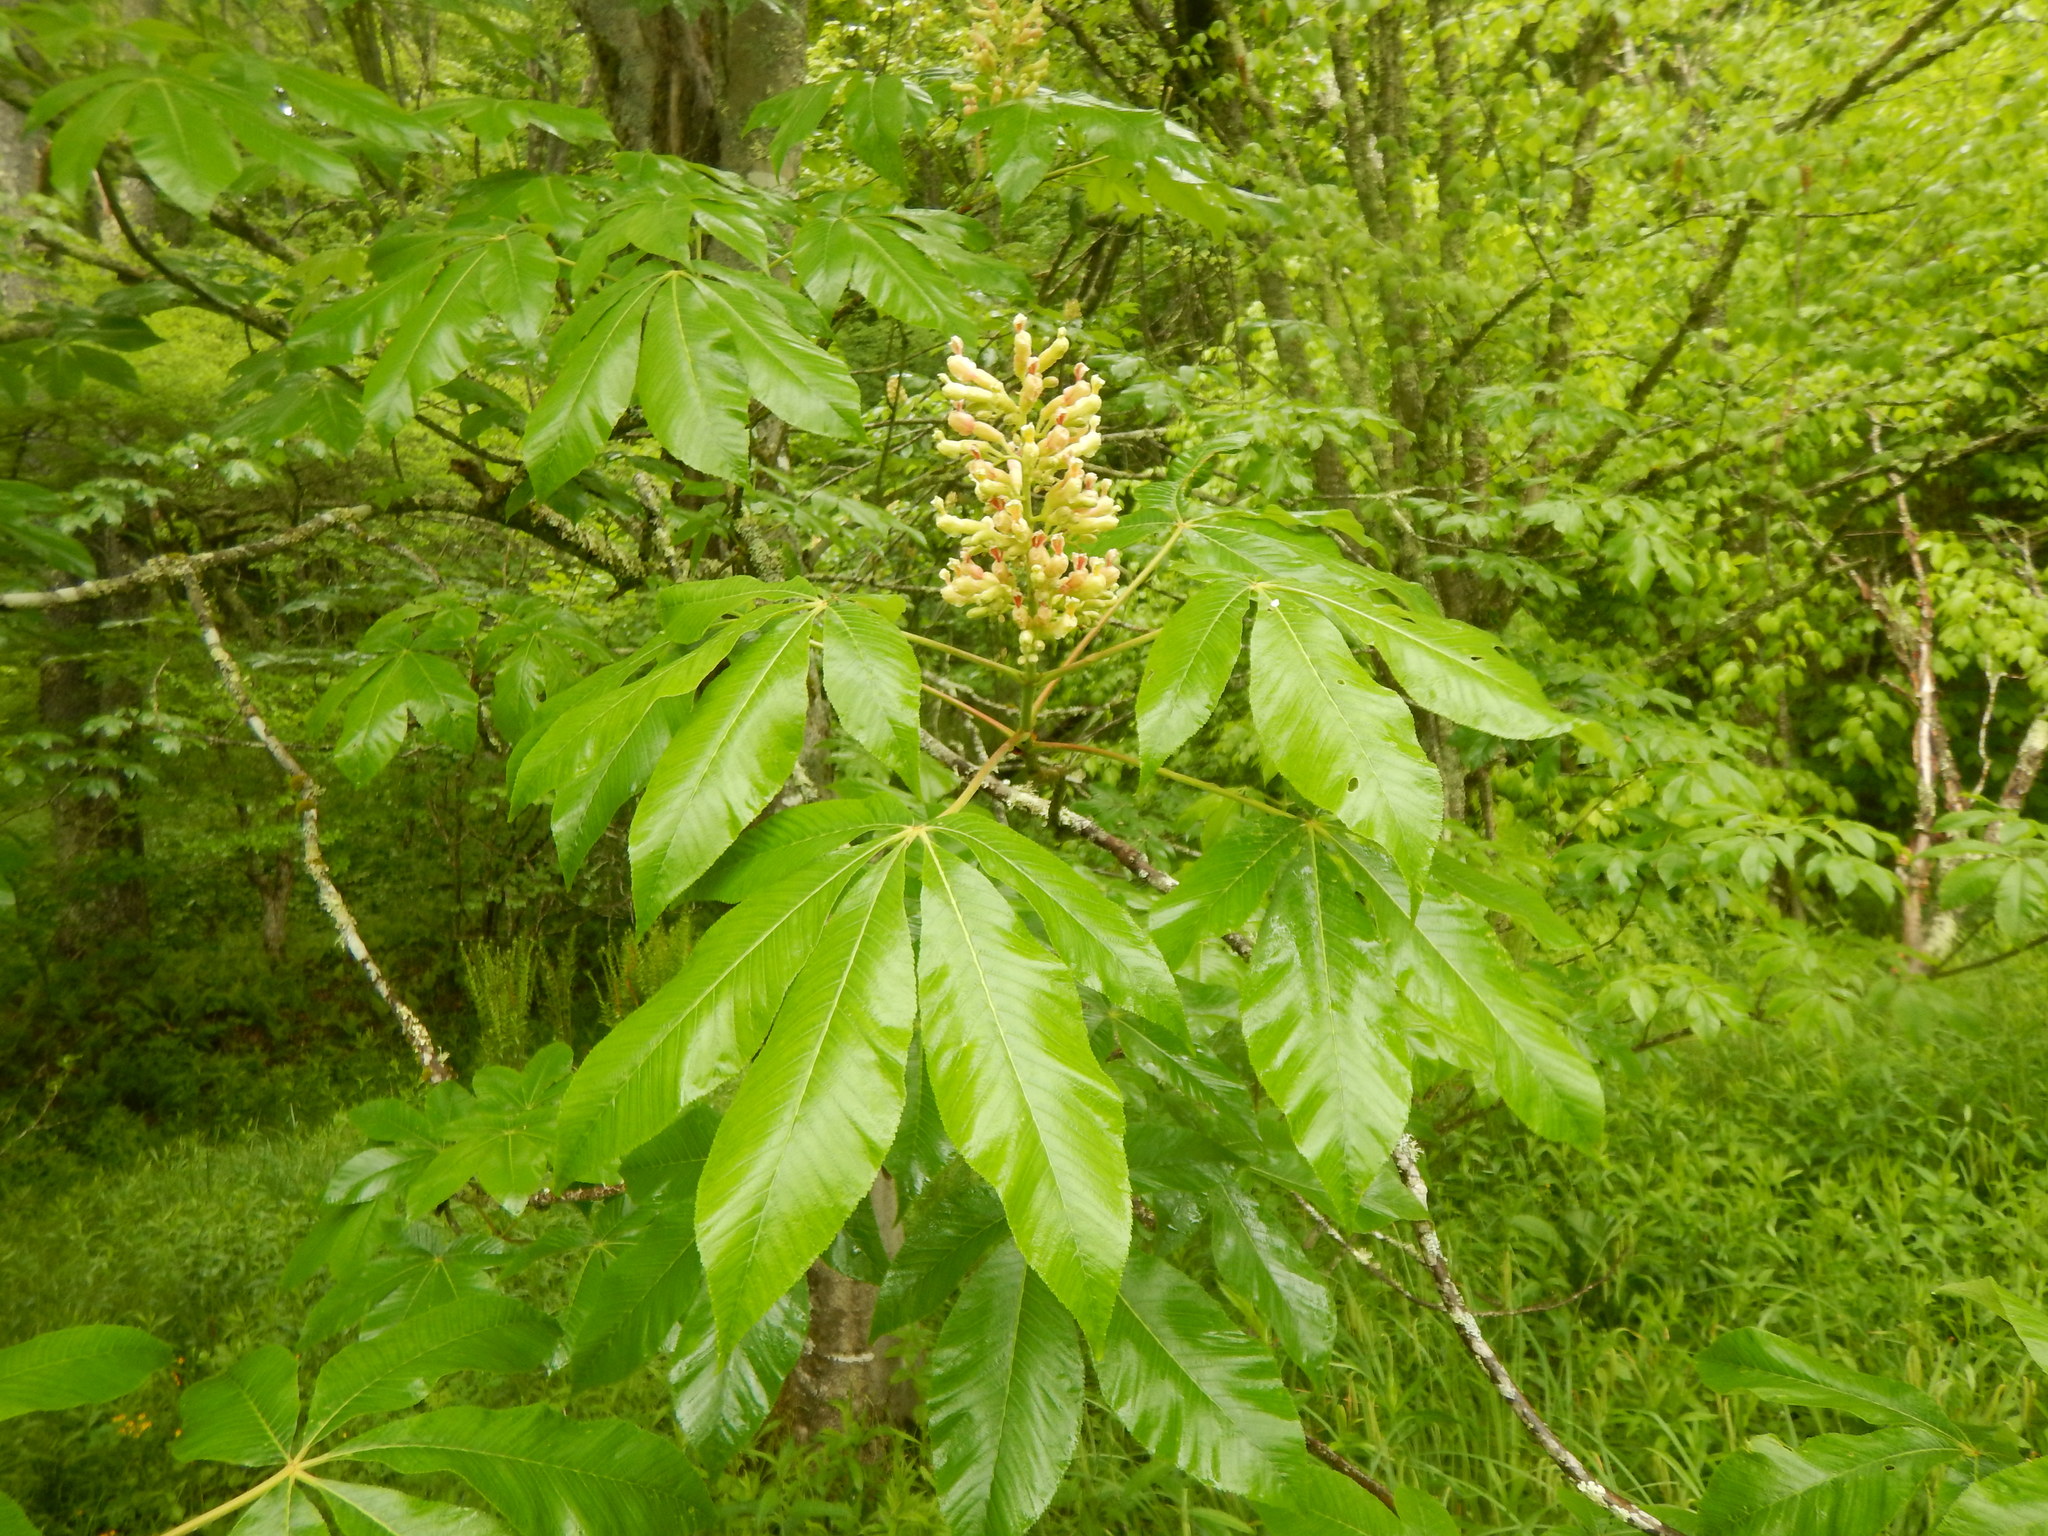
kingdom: Plantae
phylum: Tracheophyta
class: Magnoliopsida
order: Sapindales
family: Sapindaceae
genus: Aesculus
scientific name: Aesculus flava
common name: Yellow buckeye
